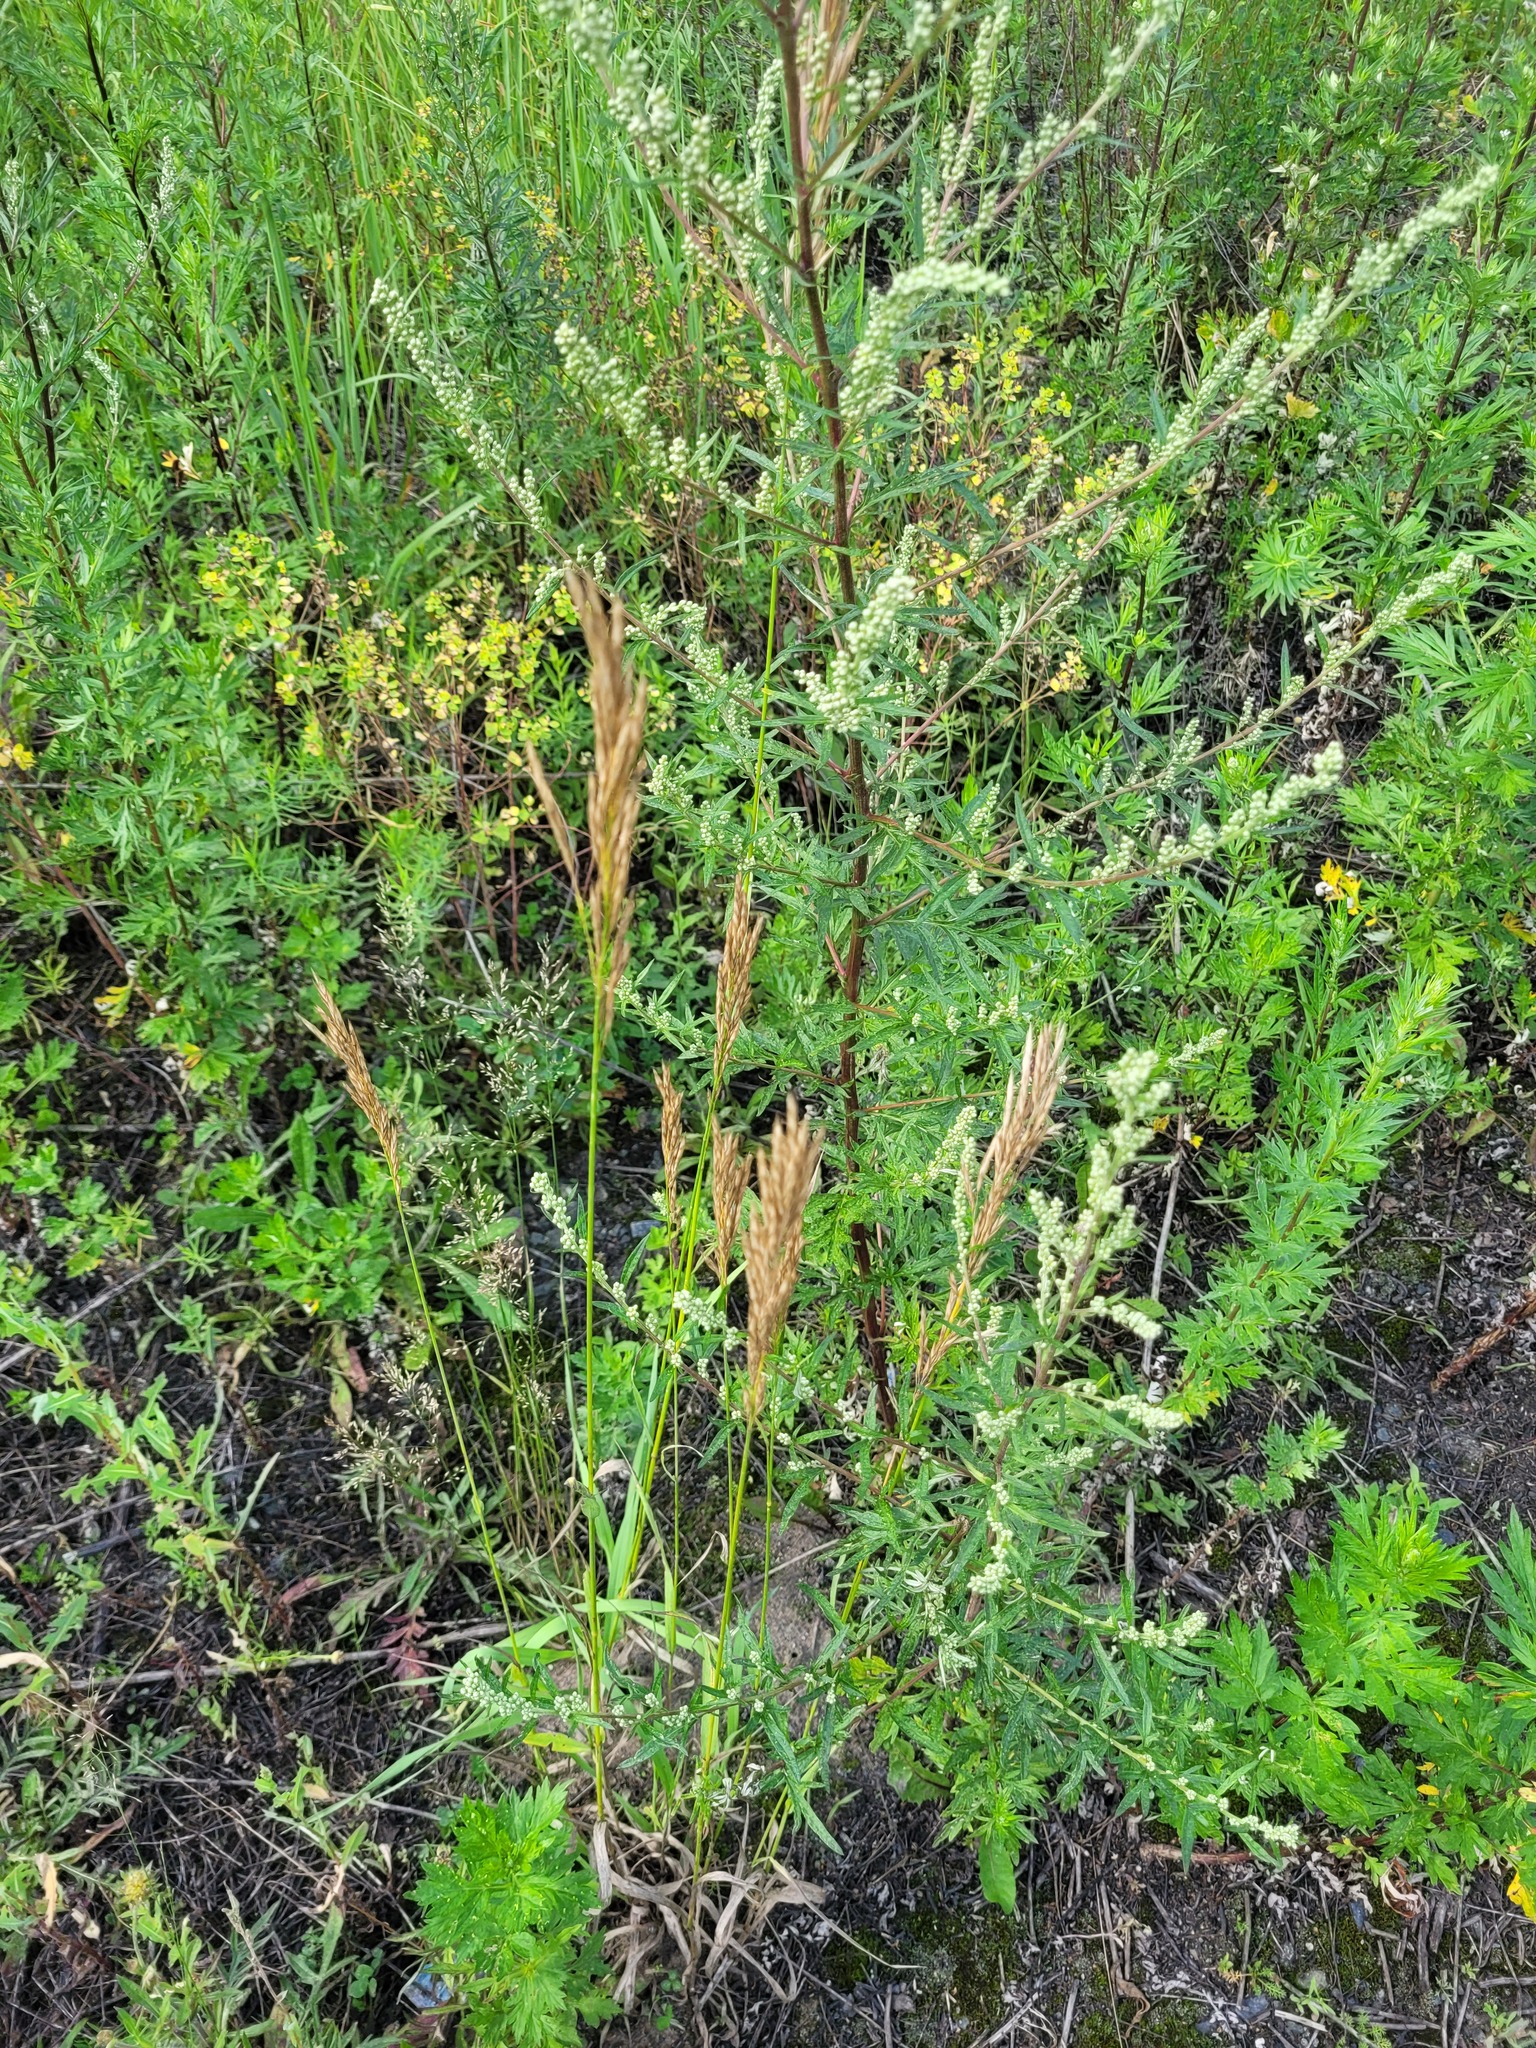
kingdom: Plantae
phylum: Tracheophyta
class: Liliopsida
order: Poales
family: Poaceae
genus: Bromus
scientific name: Bromus inermis
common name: Smooth brome
